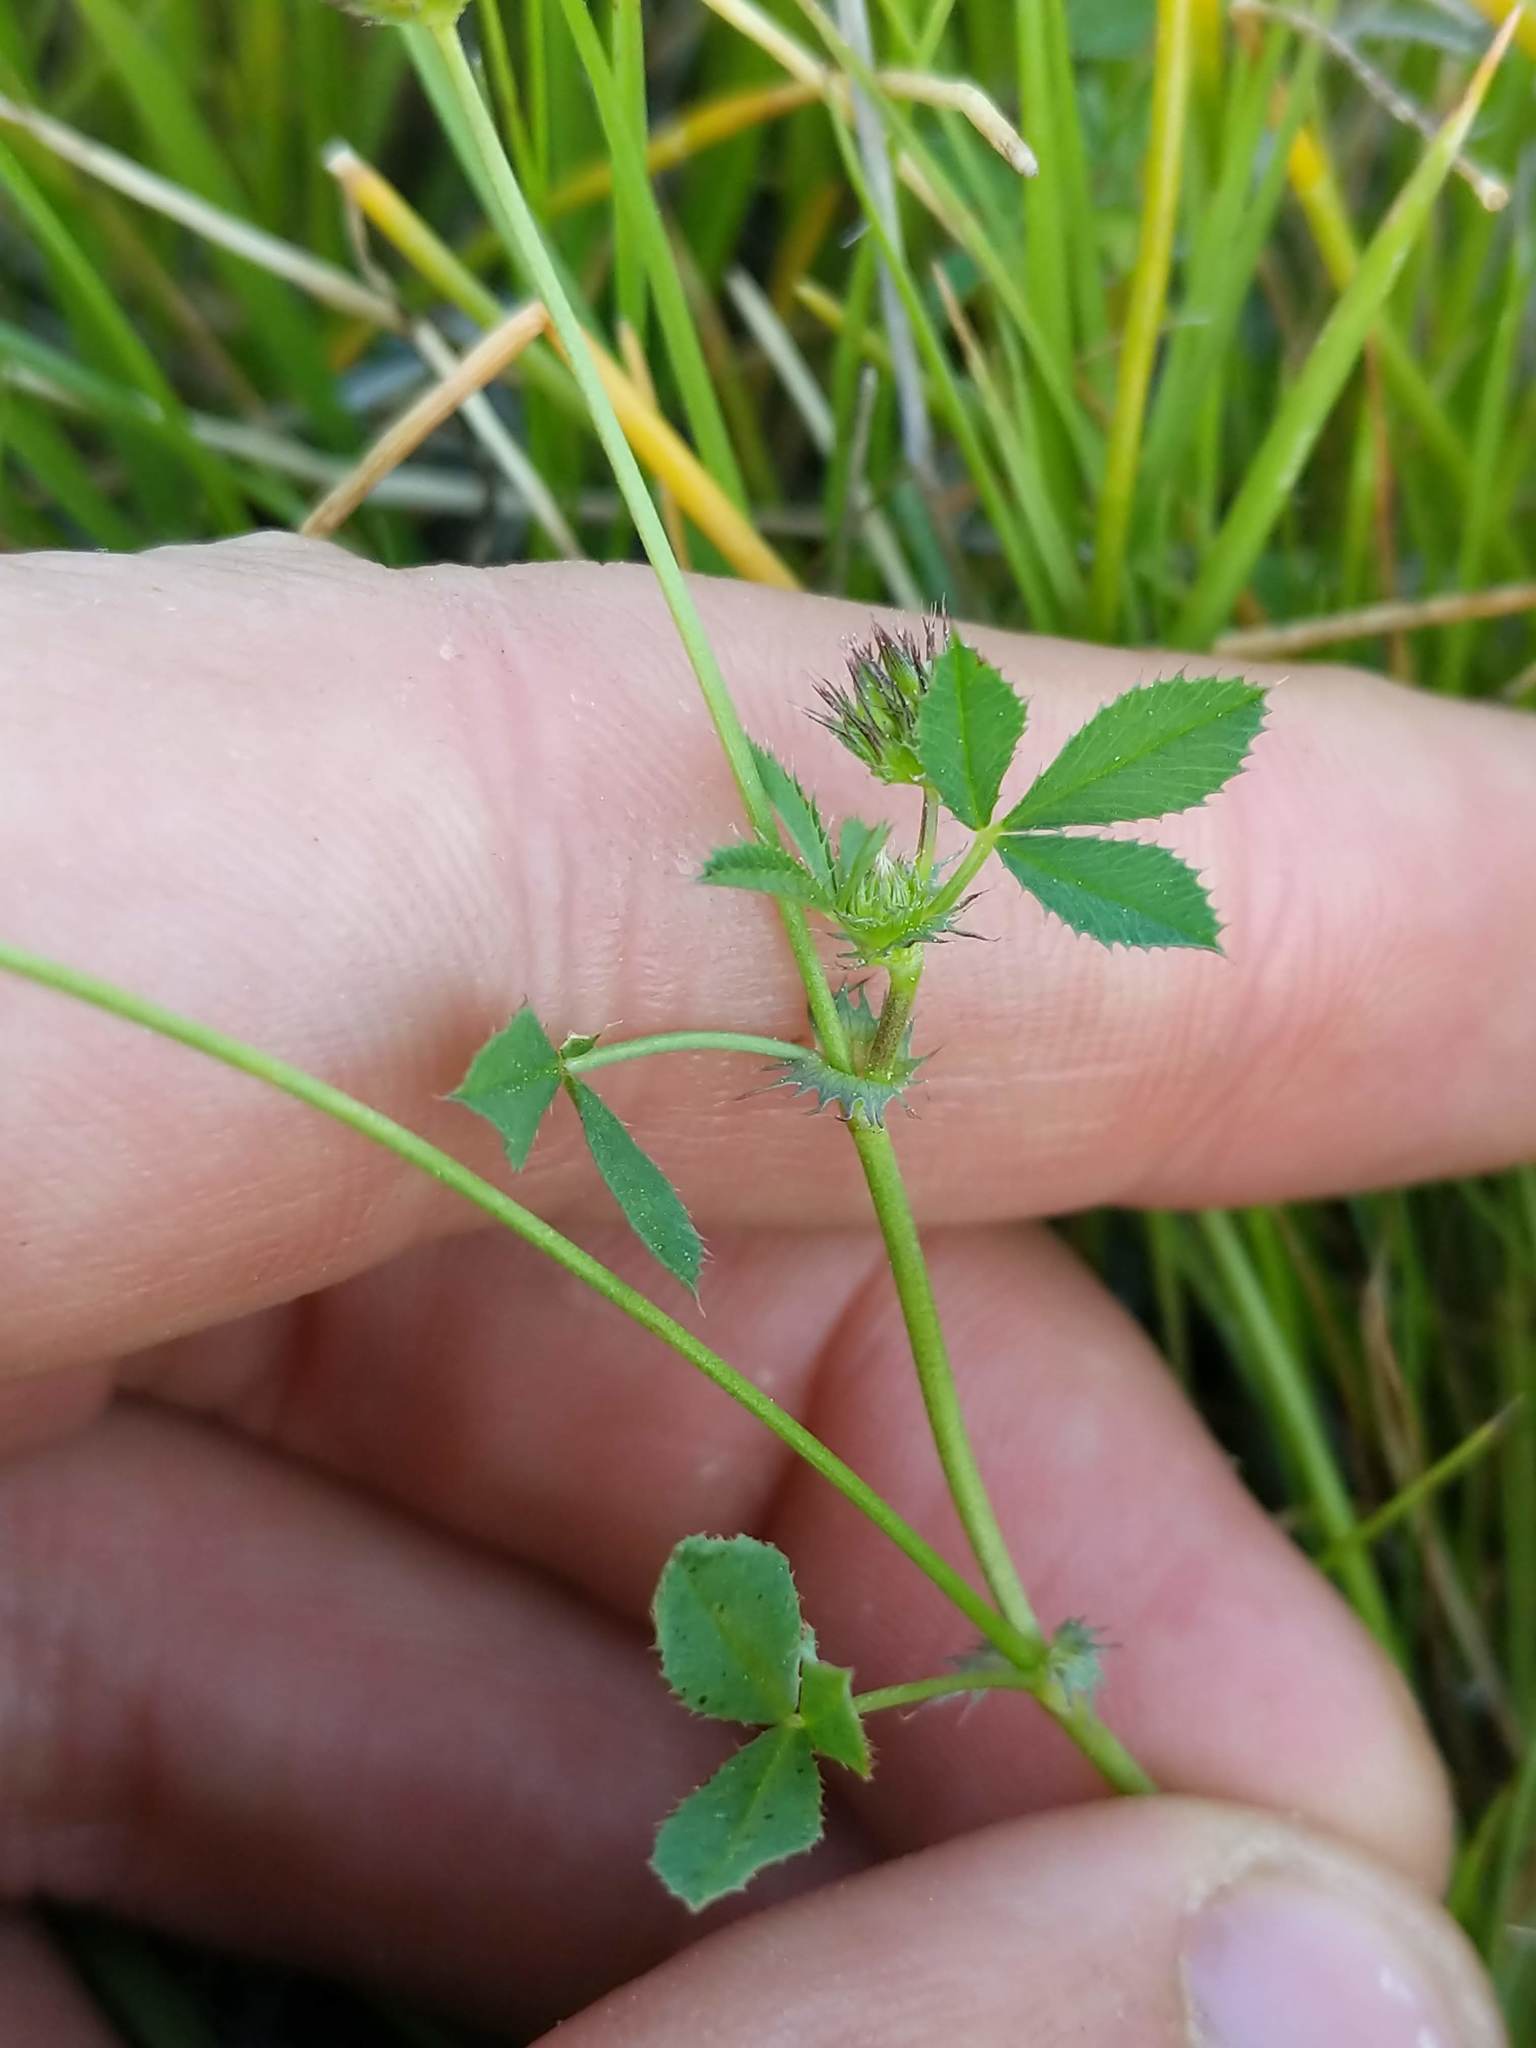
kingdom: Plantae
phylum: Tracheophyta
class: Magnoliopsida
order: Fabales
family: Fabaceae
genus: Trifolium
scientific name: Trifolium variegatum
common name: Whitetip clover
